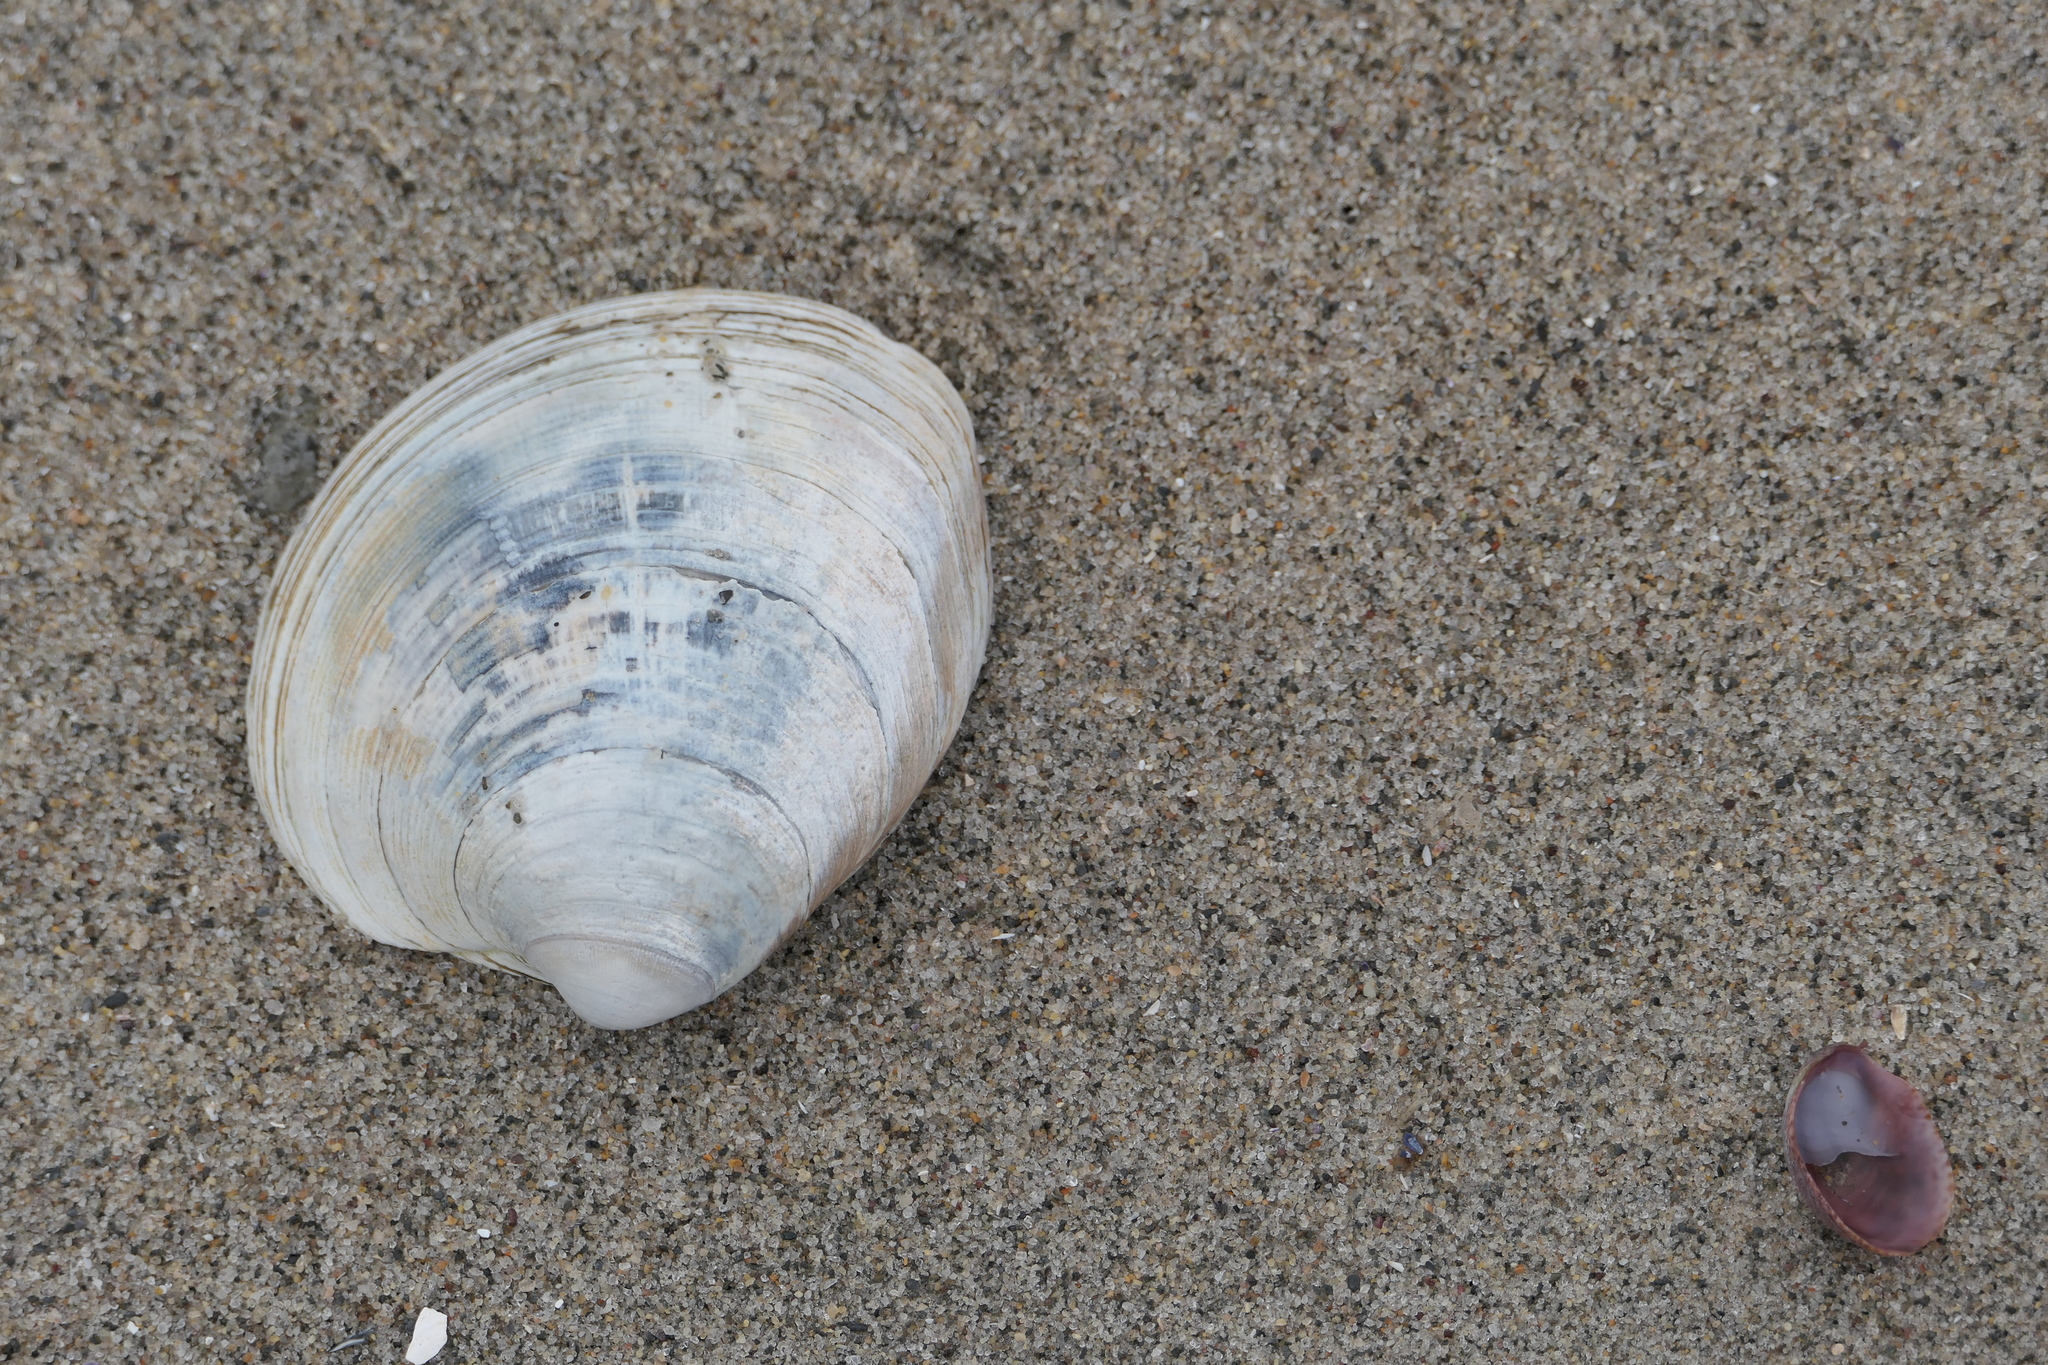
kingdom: Animalia
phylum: Mollusca
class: Bivalvia
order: Venerida
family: Veneridae
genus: Mercenaria
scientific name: Mercenaria mercenaria
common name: American hard-shelled clam
